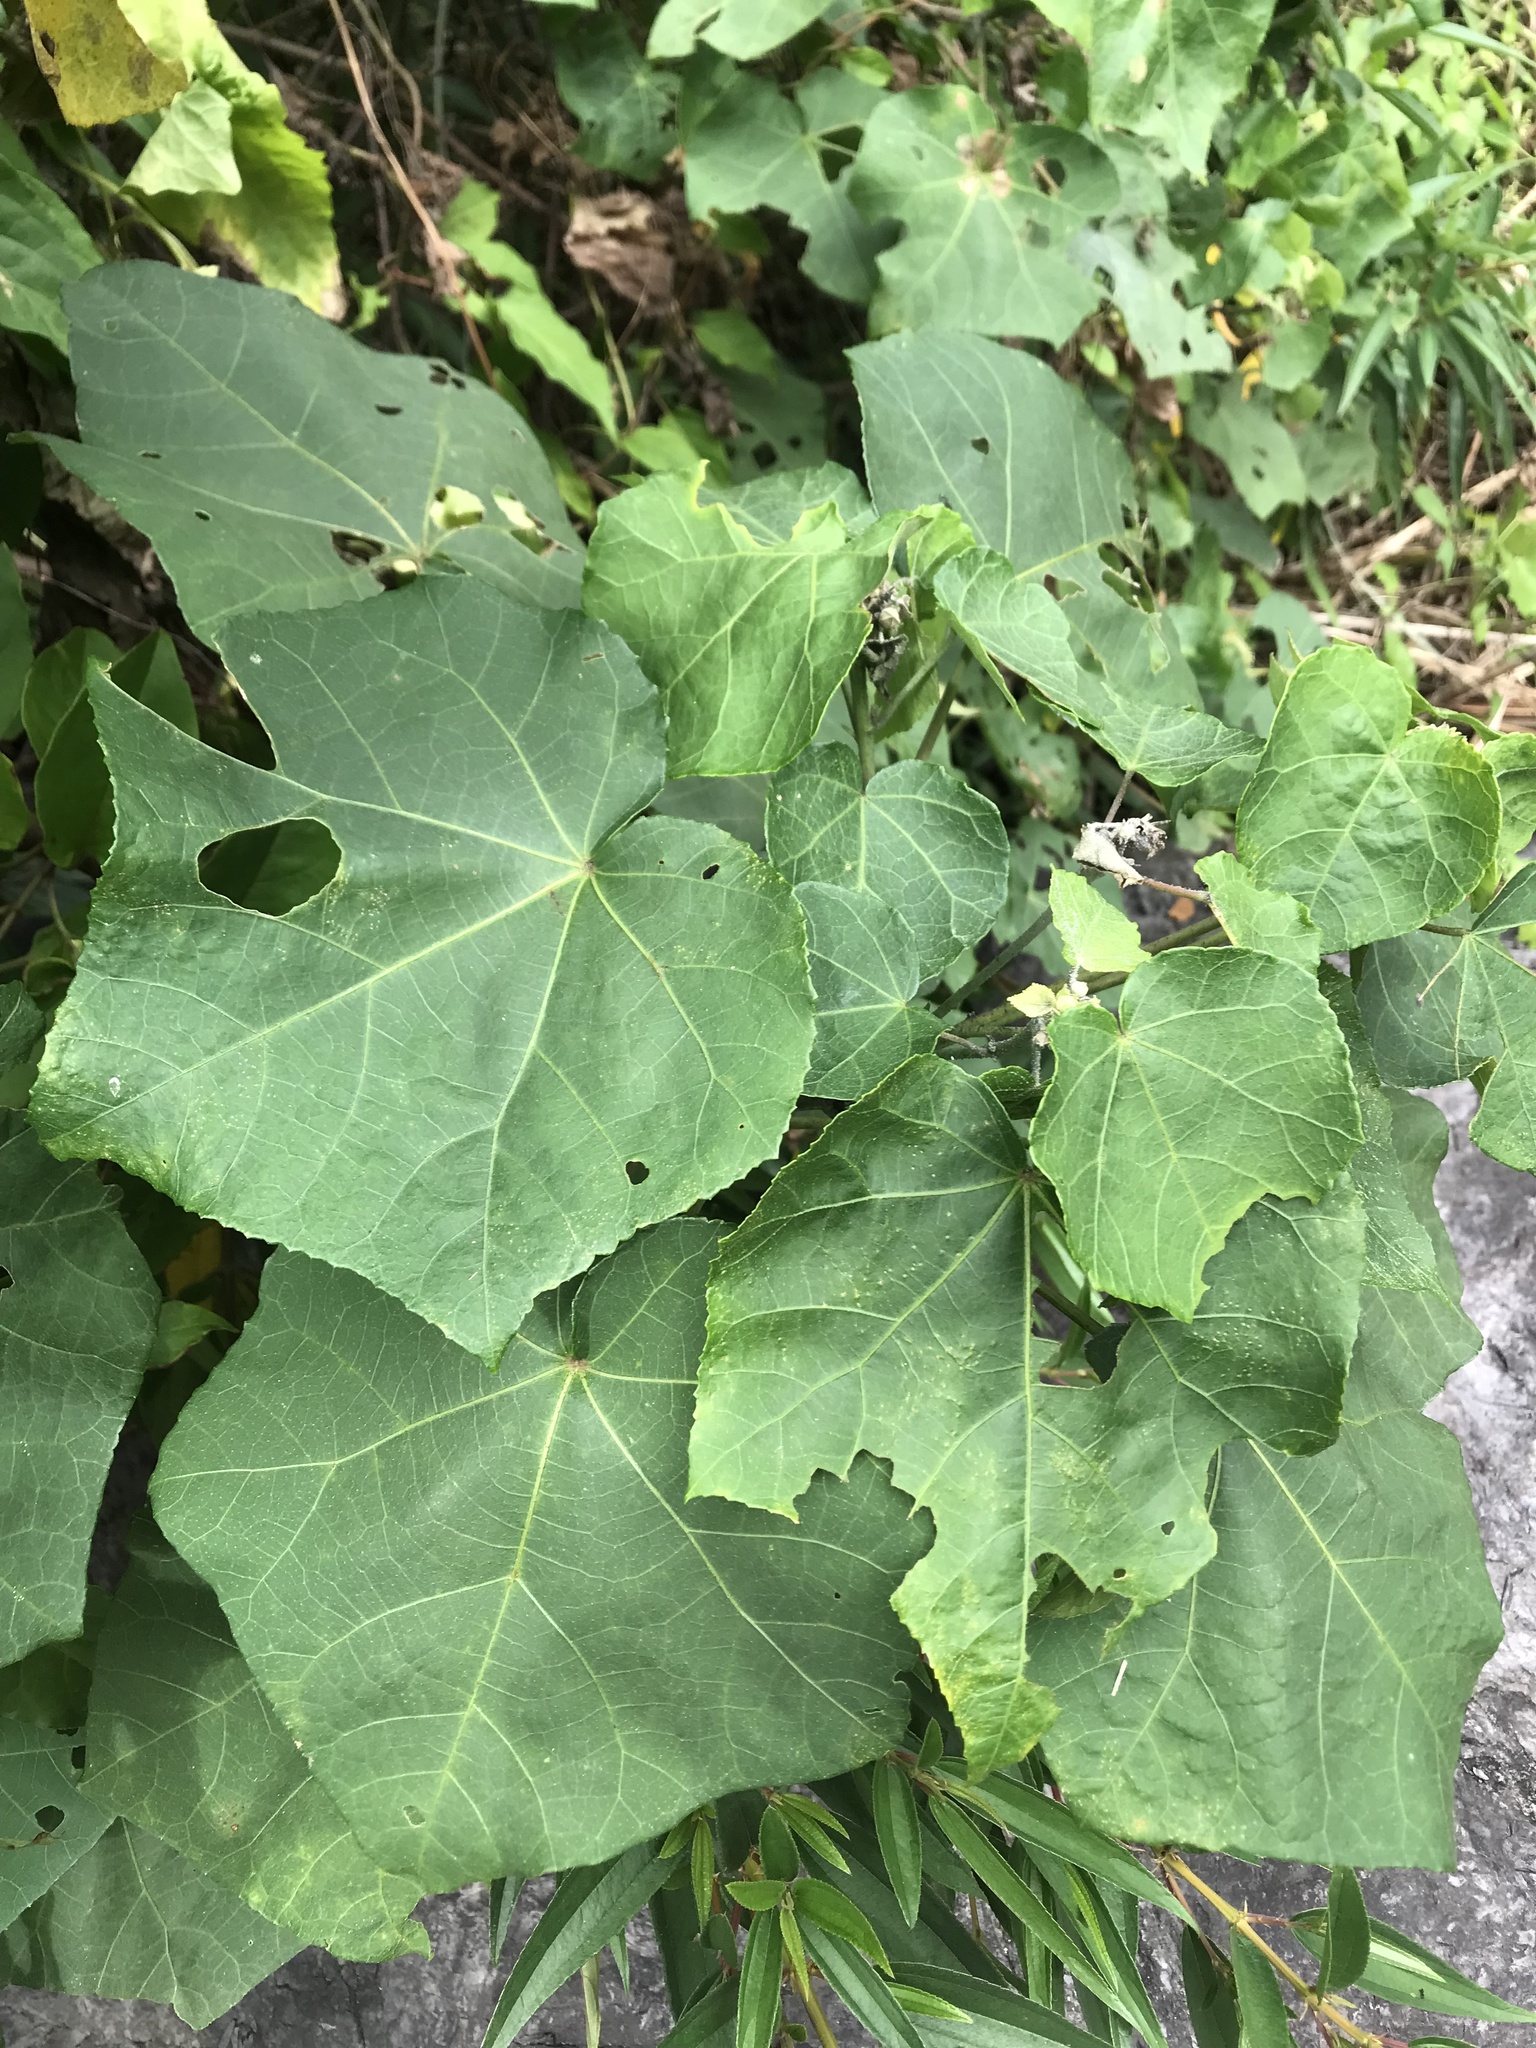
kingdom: Plantae
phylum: Tracheophyta
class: Magnoliopsida
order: Malvales
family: Malvaceae
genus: Hibiscus
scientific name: Hibiscus taiwanensis
